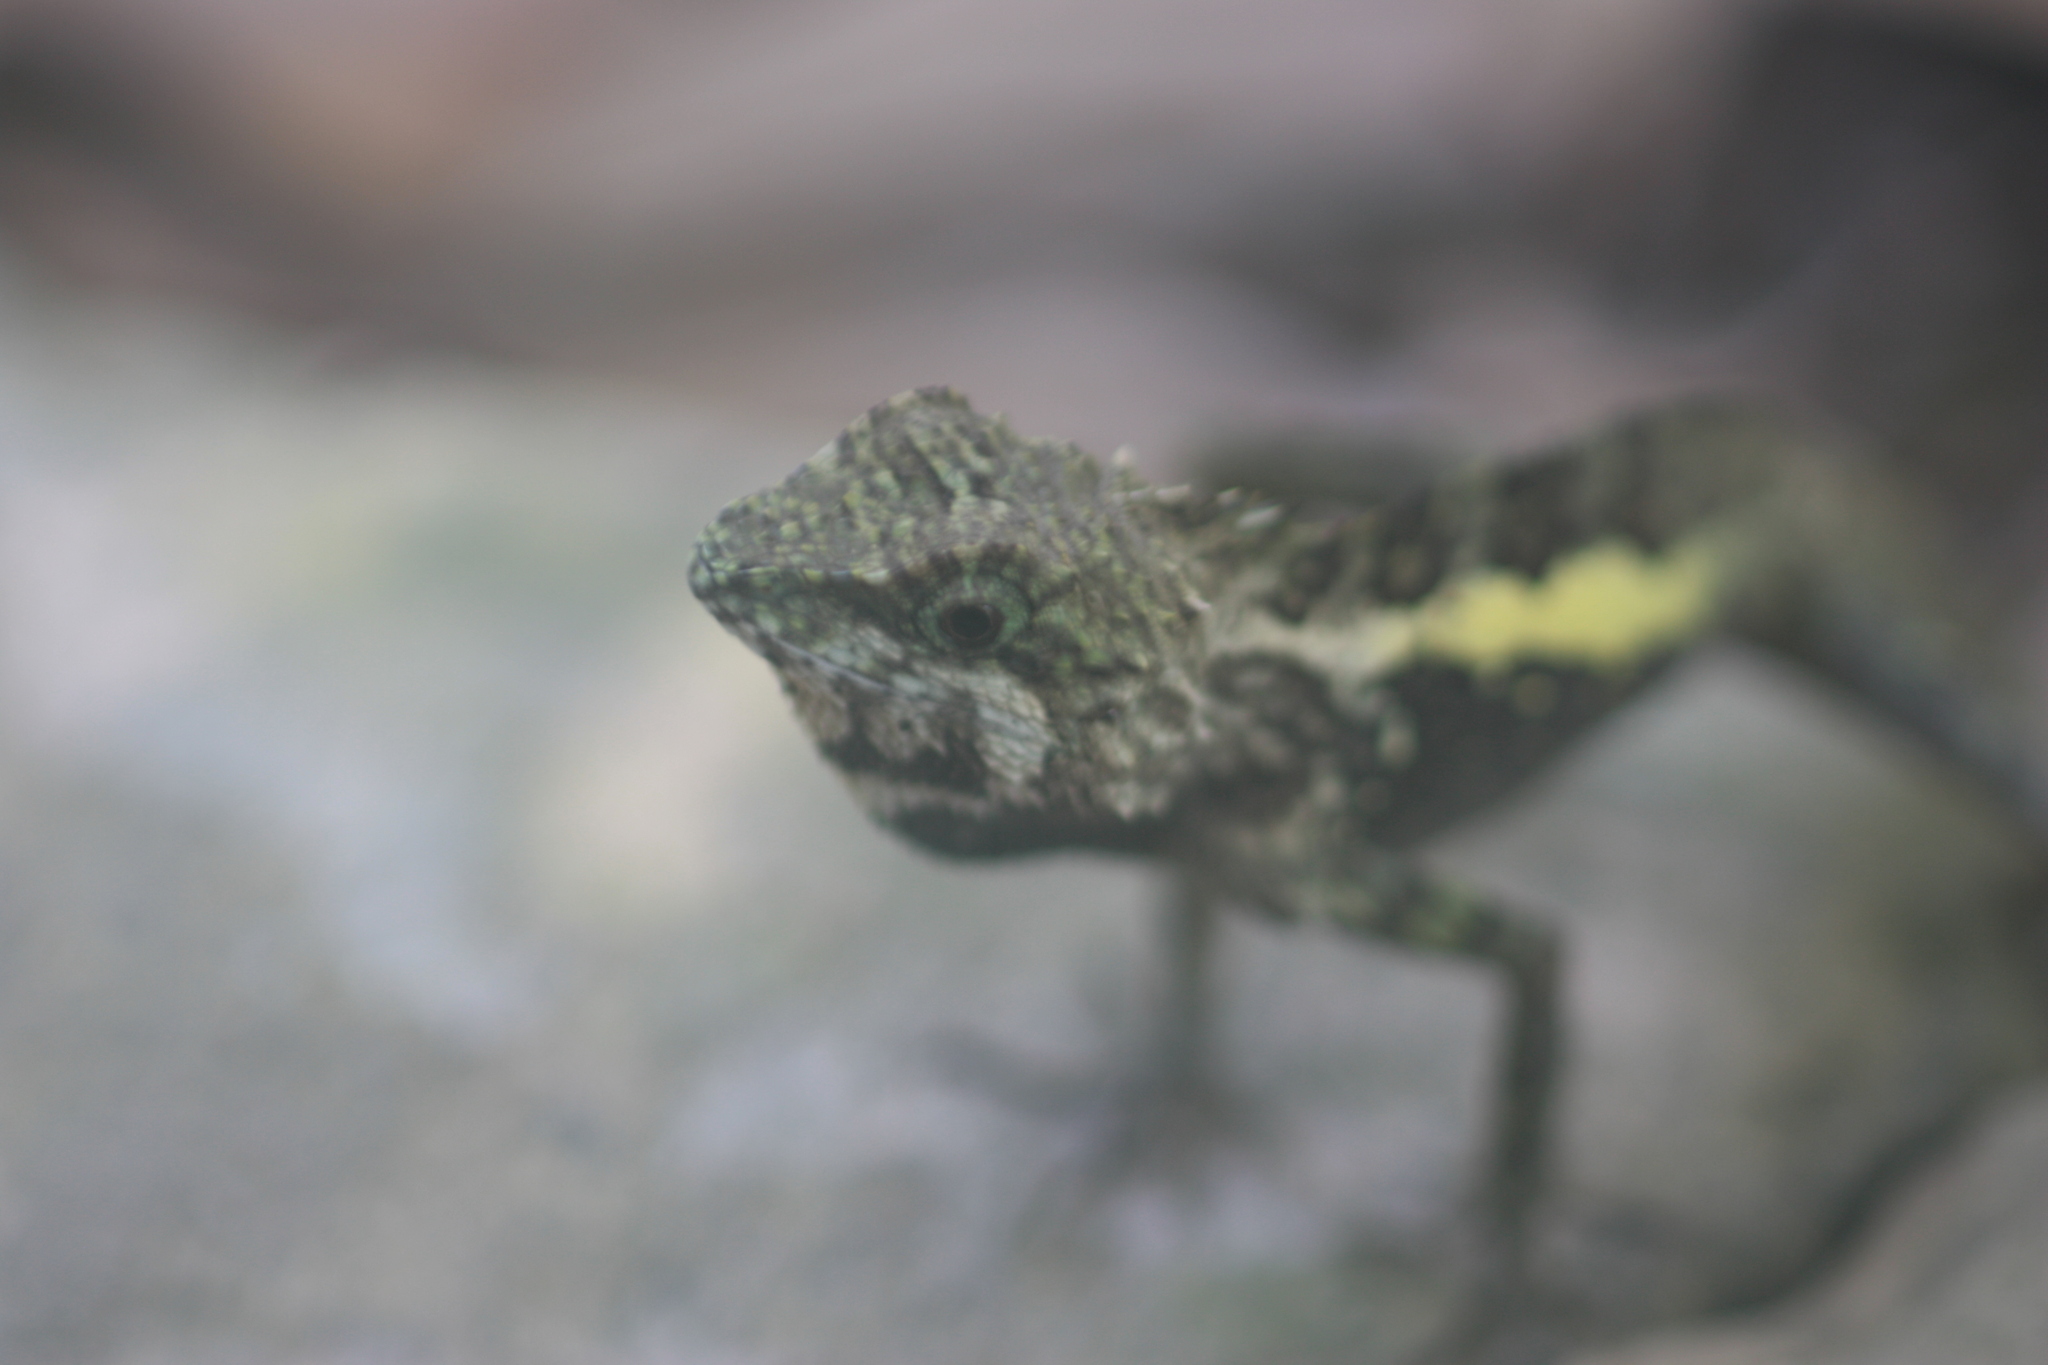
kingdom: Animalia
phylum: Chordata
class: Squamata
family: Agamidae
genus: Diploderma
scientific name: Diploderma swinhonis
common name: Taiwan japalure
